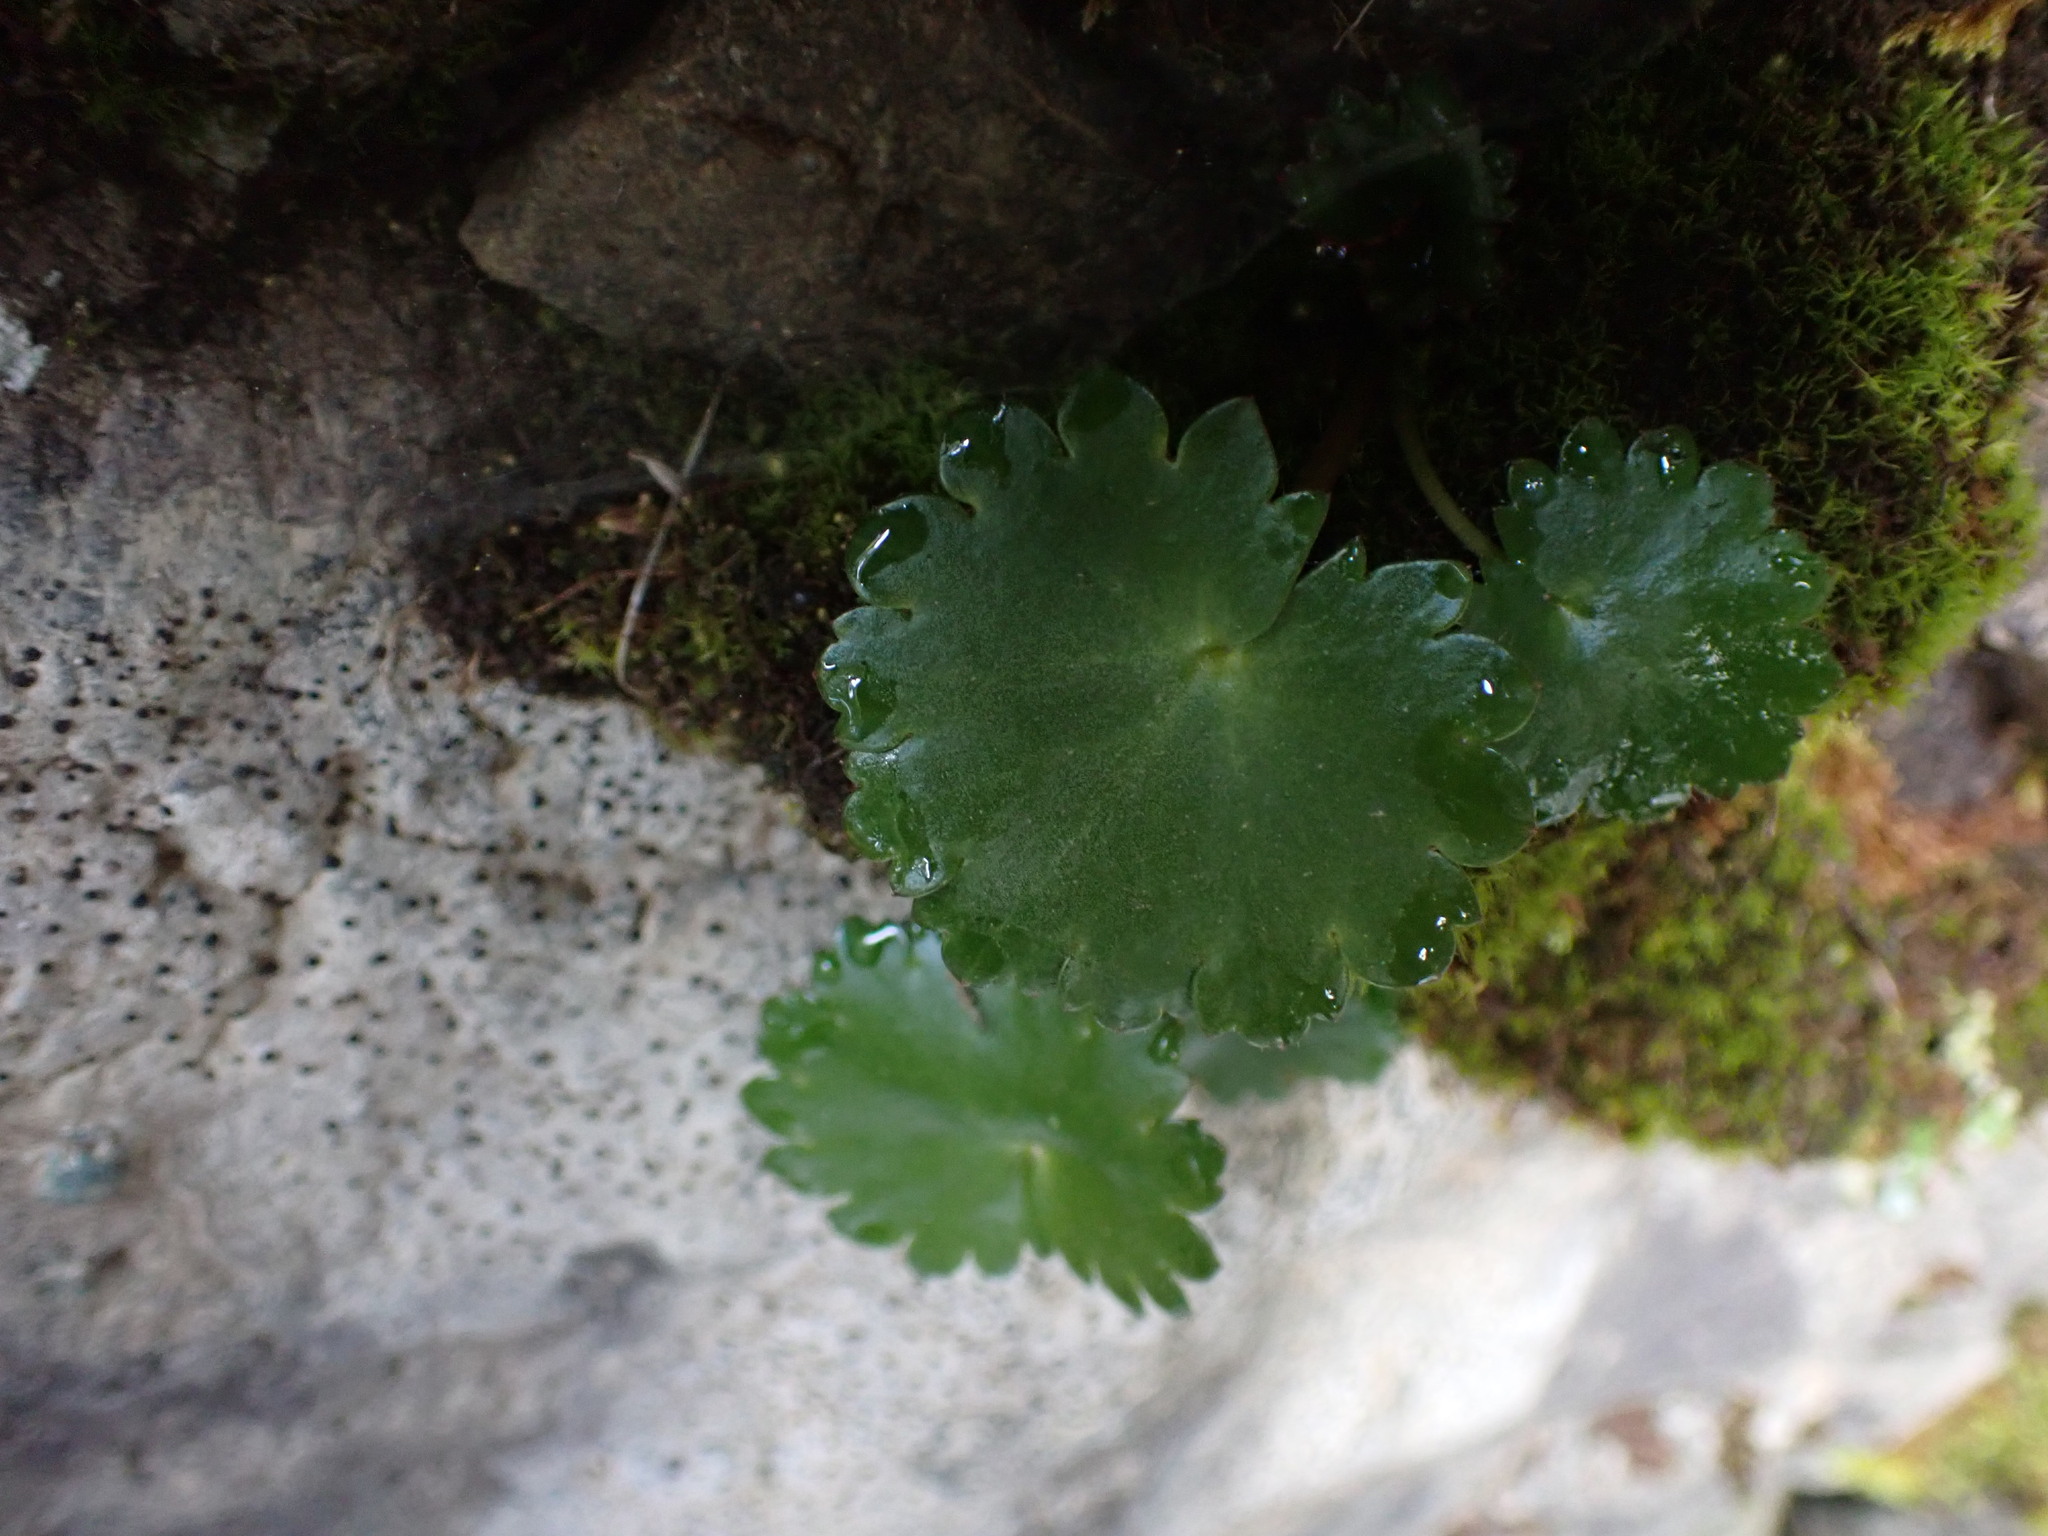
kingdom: Plantae
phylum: Tracheophyta
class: Magnoliopsida
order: Saxifragales
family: Saxifragaceae
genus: Micranthes
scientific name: Micranthes mertensiana
